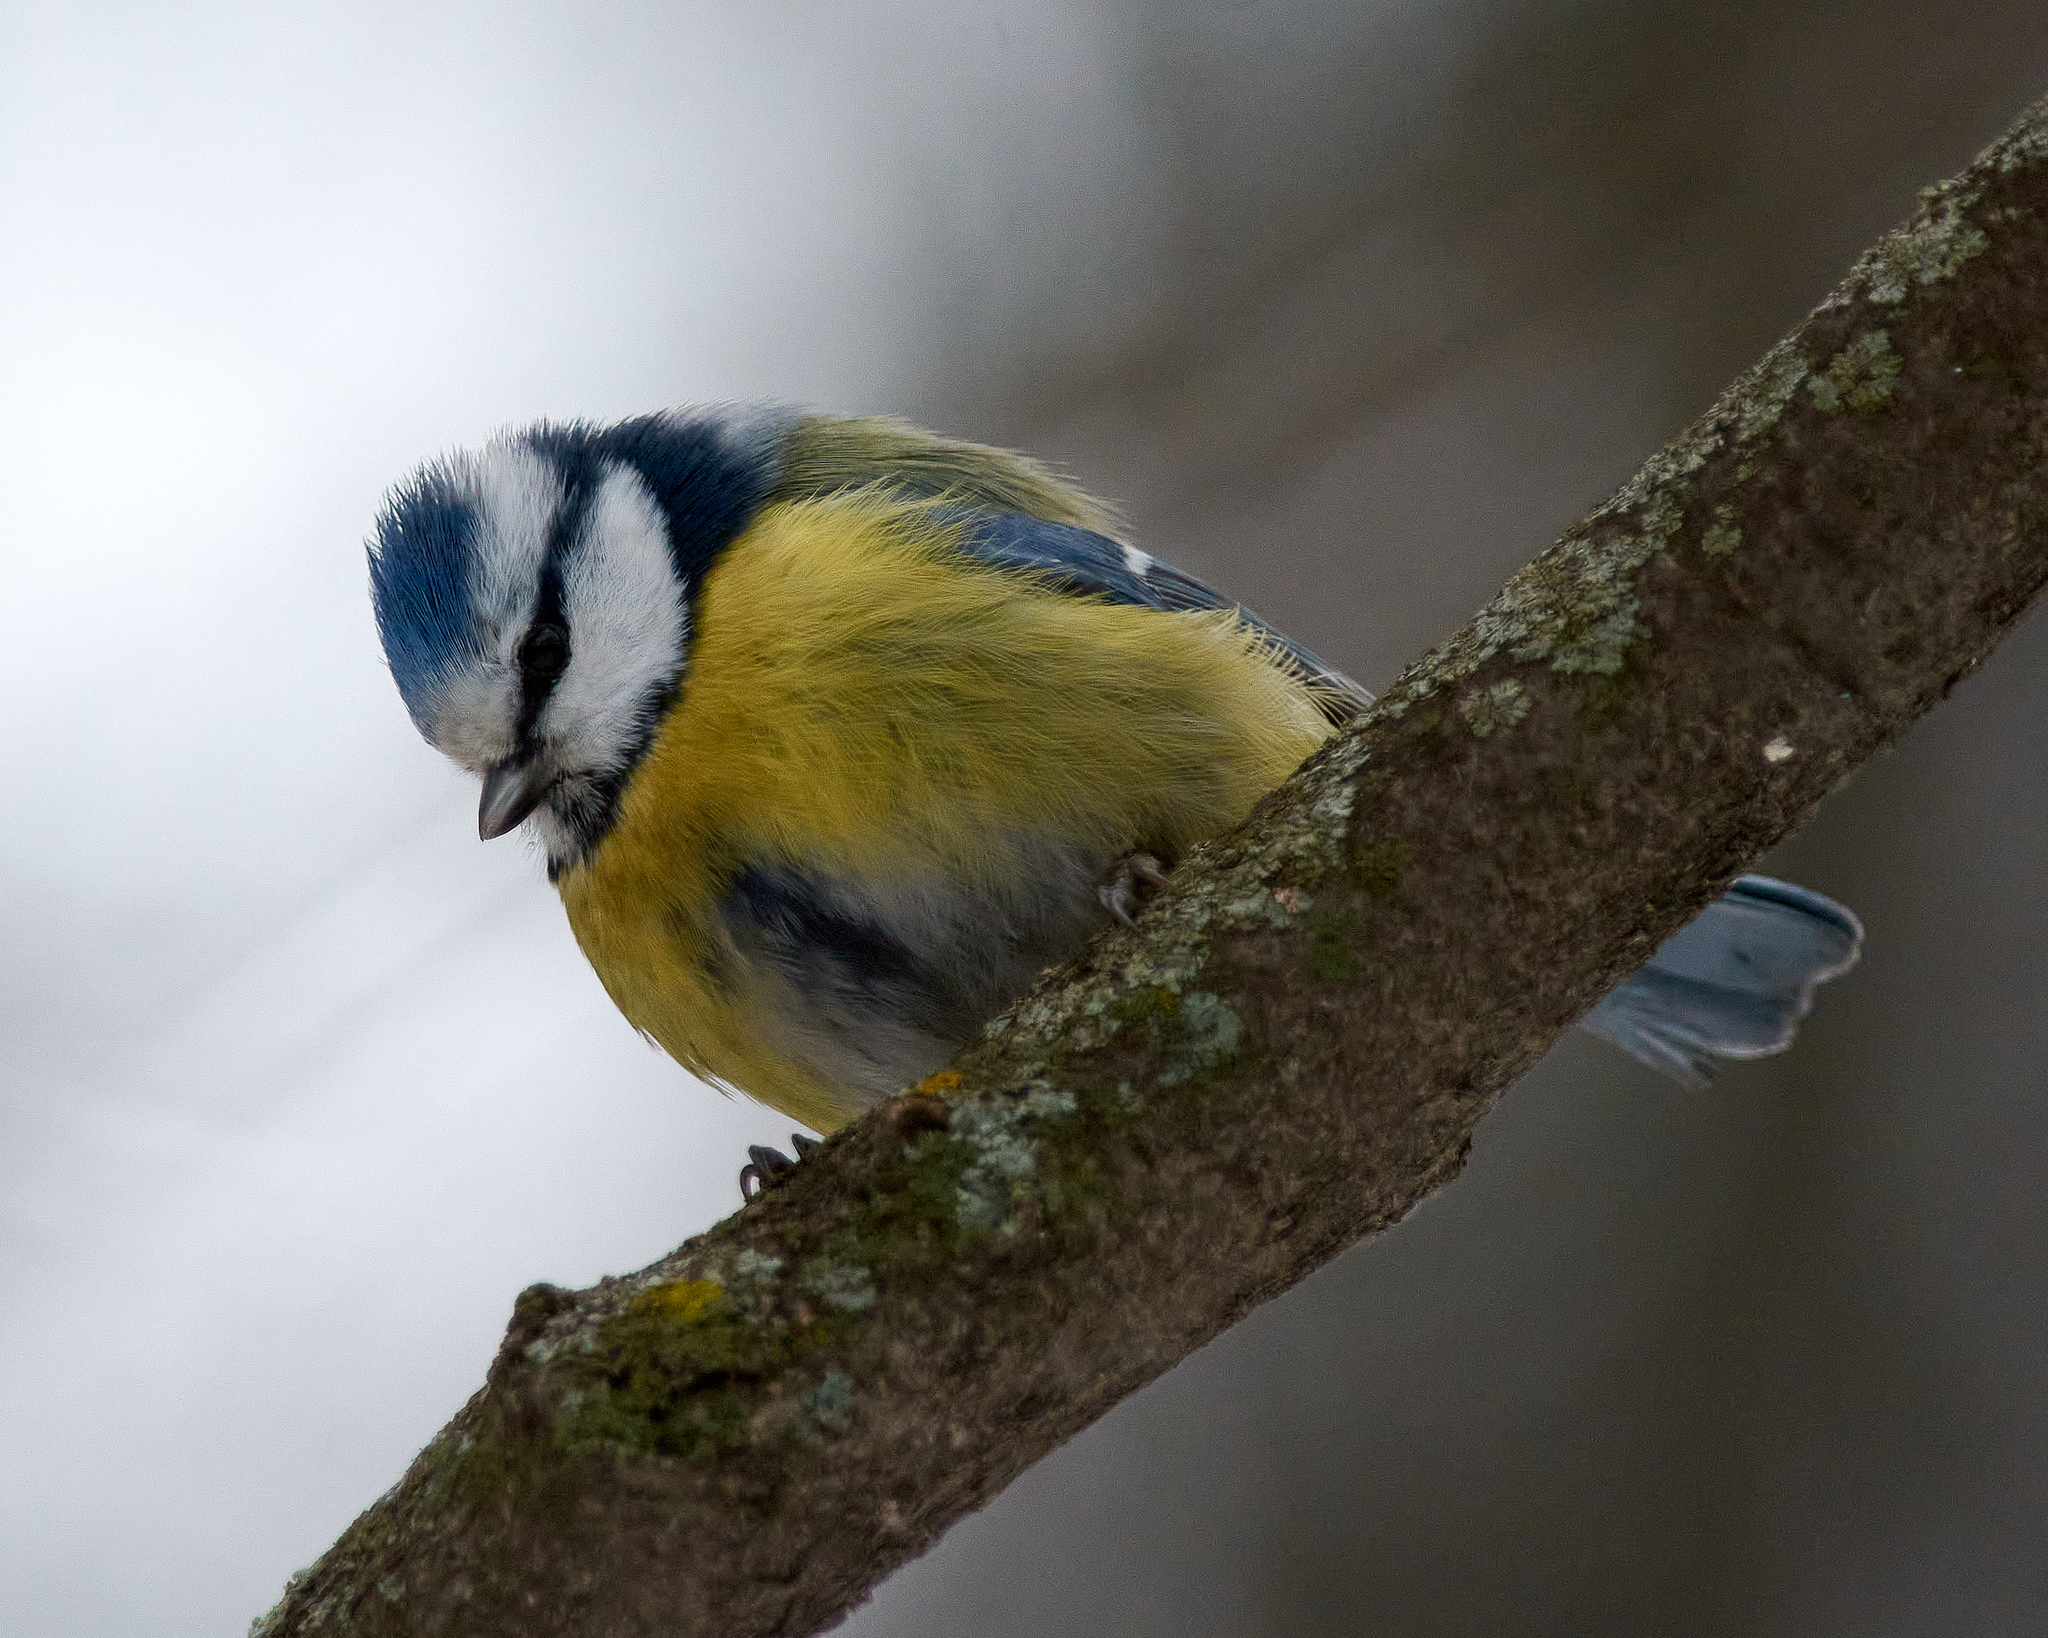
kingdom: Animalia
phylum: Chordata
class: Aves
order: Passeriformes
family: Paridae
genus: Cyanistes
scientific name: Cyanistes caeruleus
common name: Eurasian blue tit
